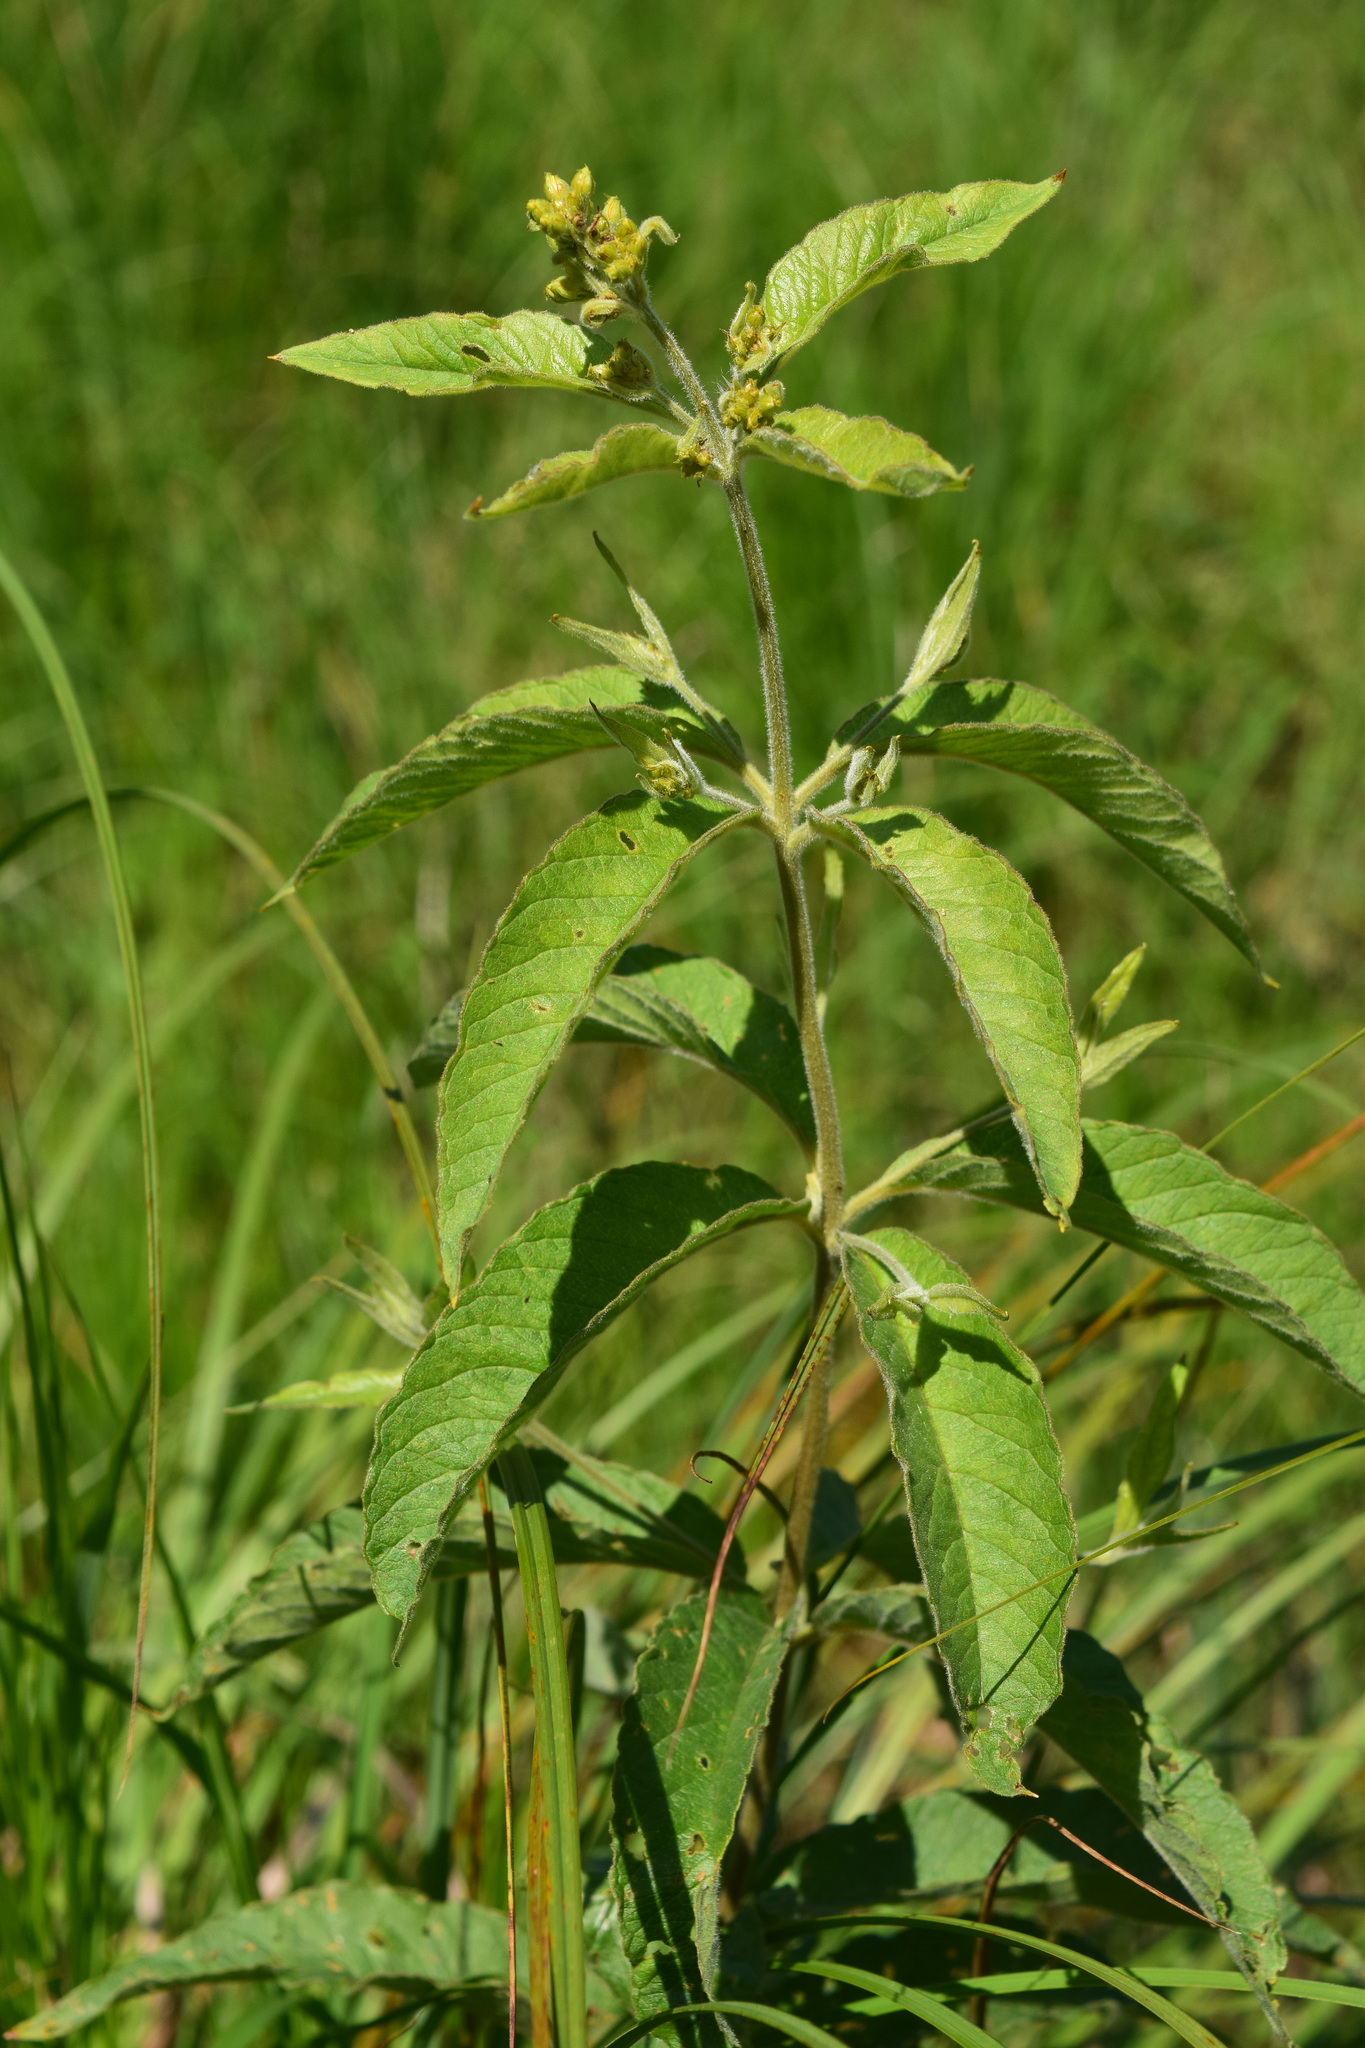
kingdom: Plantae
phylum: Tracheophyta
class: Magnoliopsida
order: Ericales
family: Primulaceae
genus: Lysimachia
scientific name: Lysimachia vulgaris
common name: Yellow loosestrife
